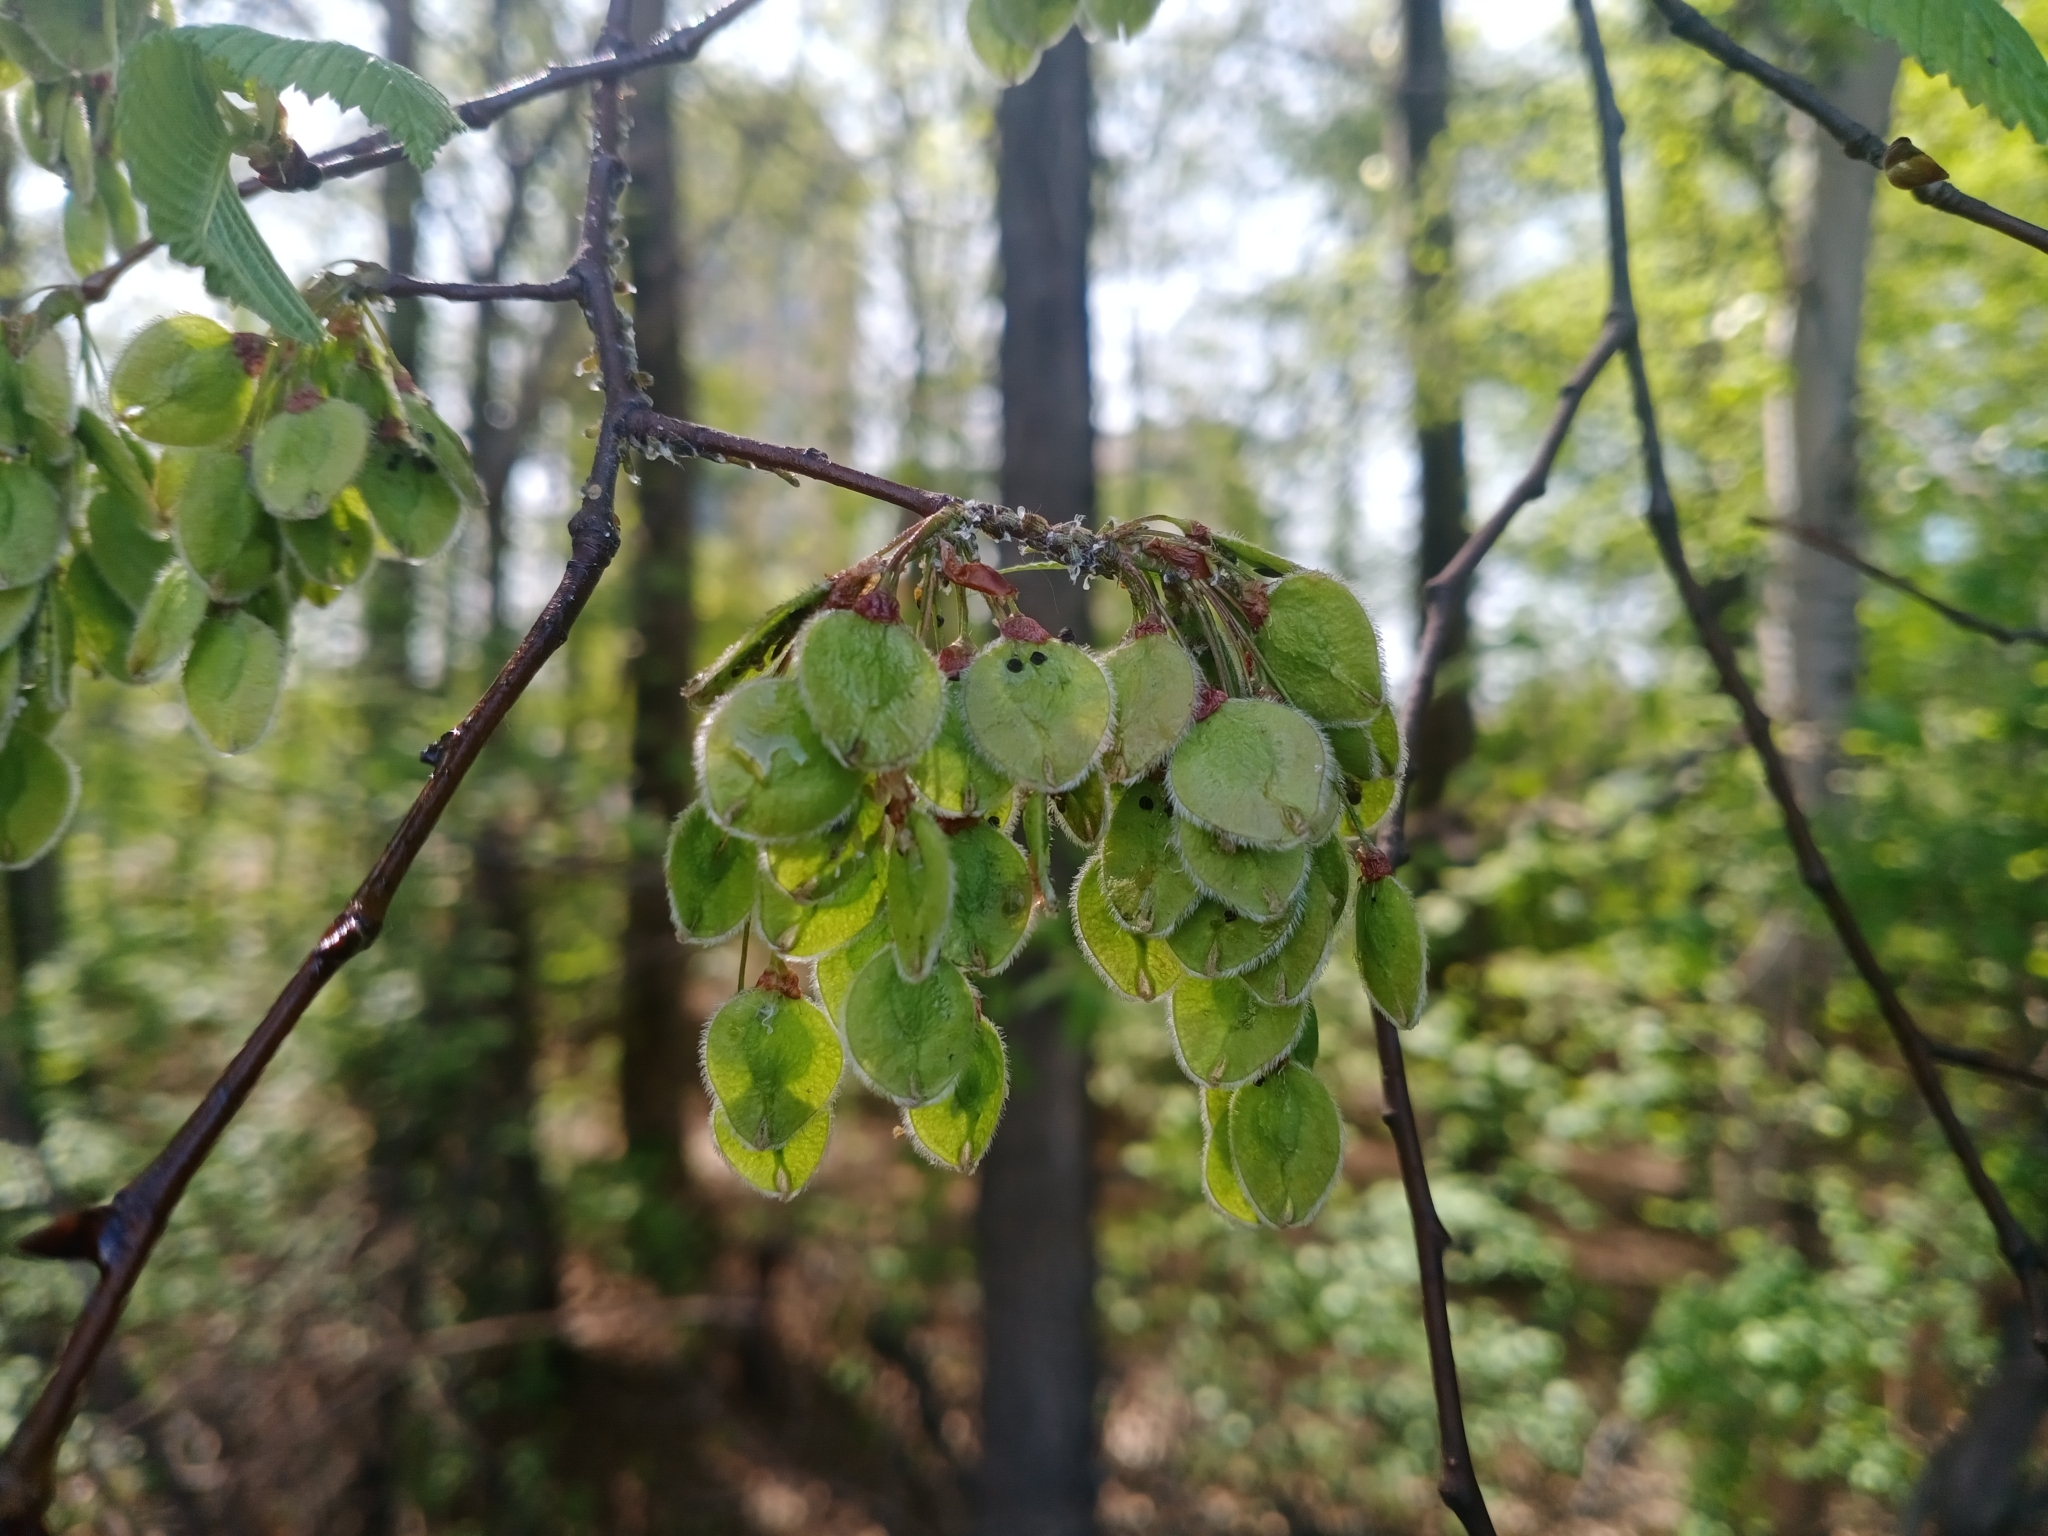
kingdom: Plantae
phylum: Tracheophyta
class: Magnoliopsida
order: Rosales
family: Ulmaceae
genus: Ulmus
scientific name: Ulmus laevis
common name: European white-elm
